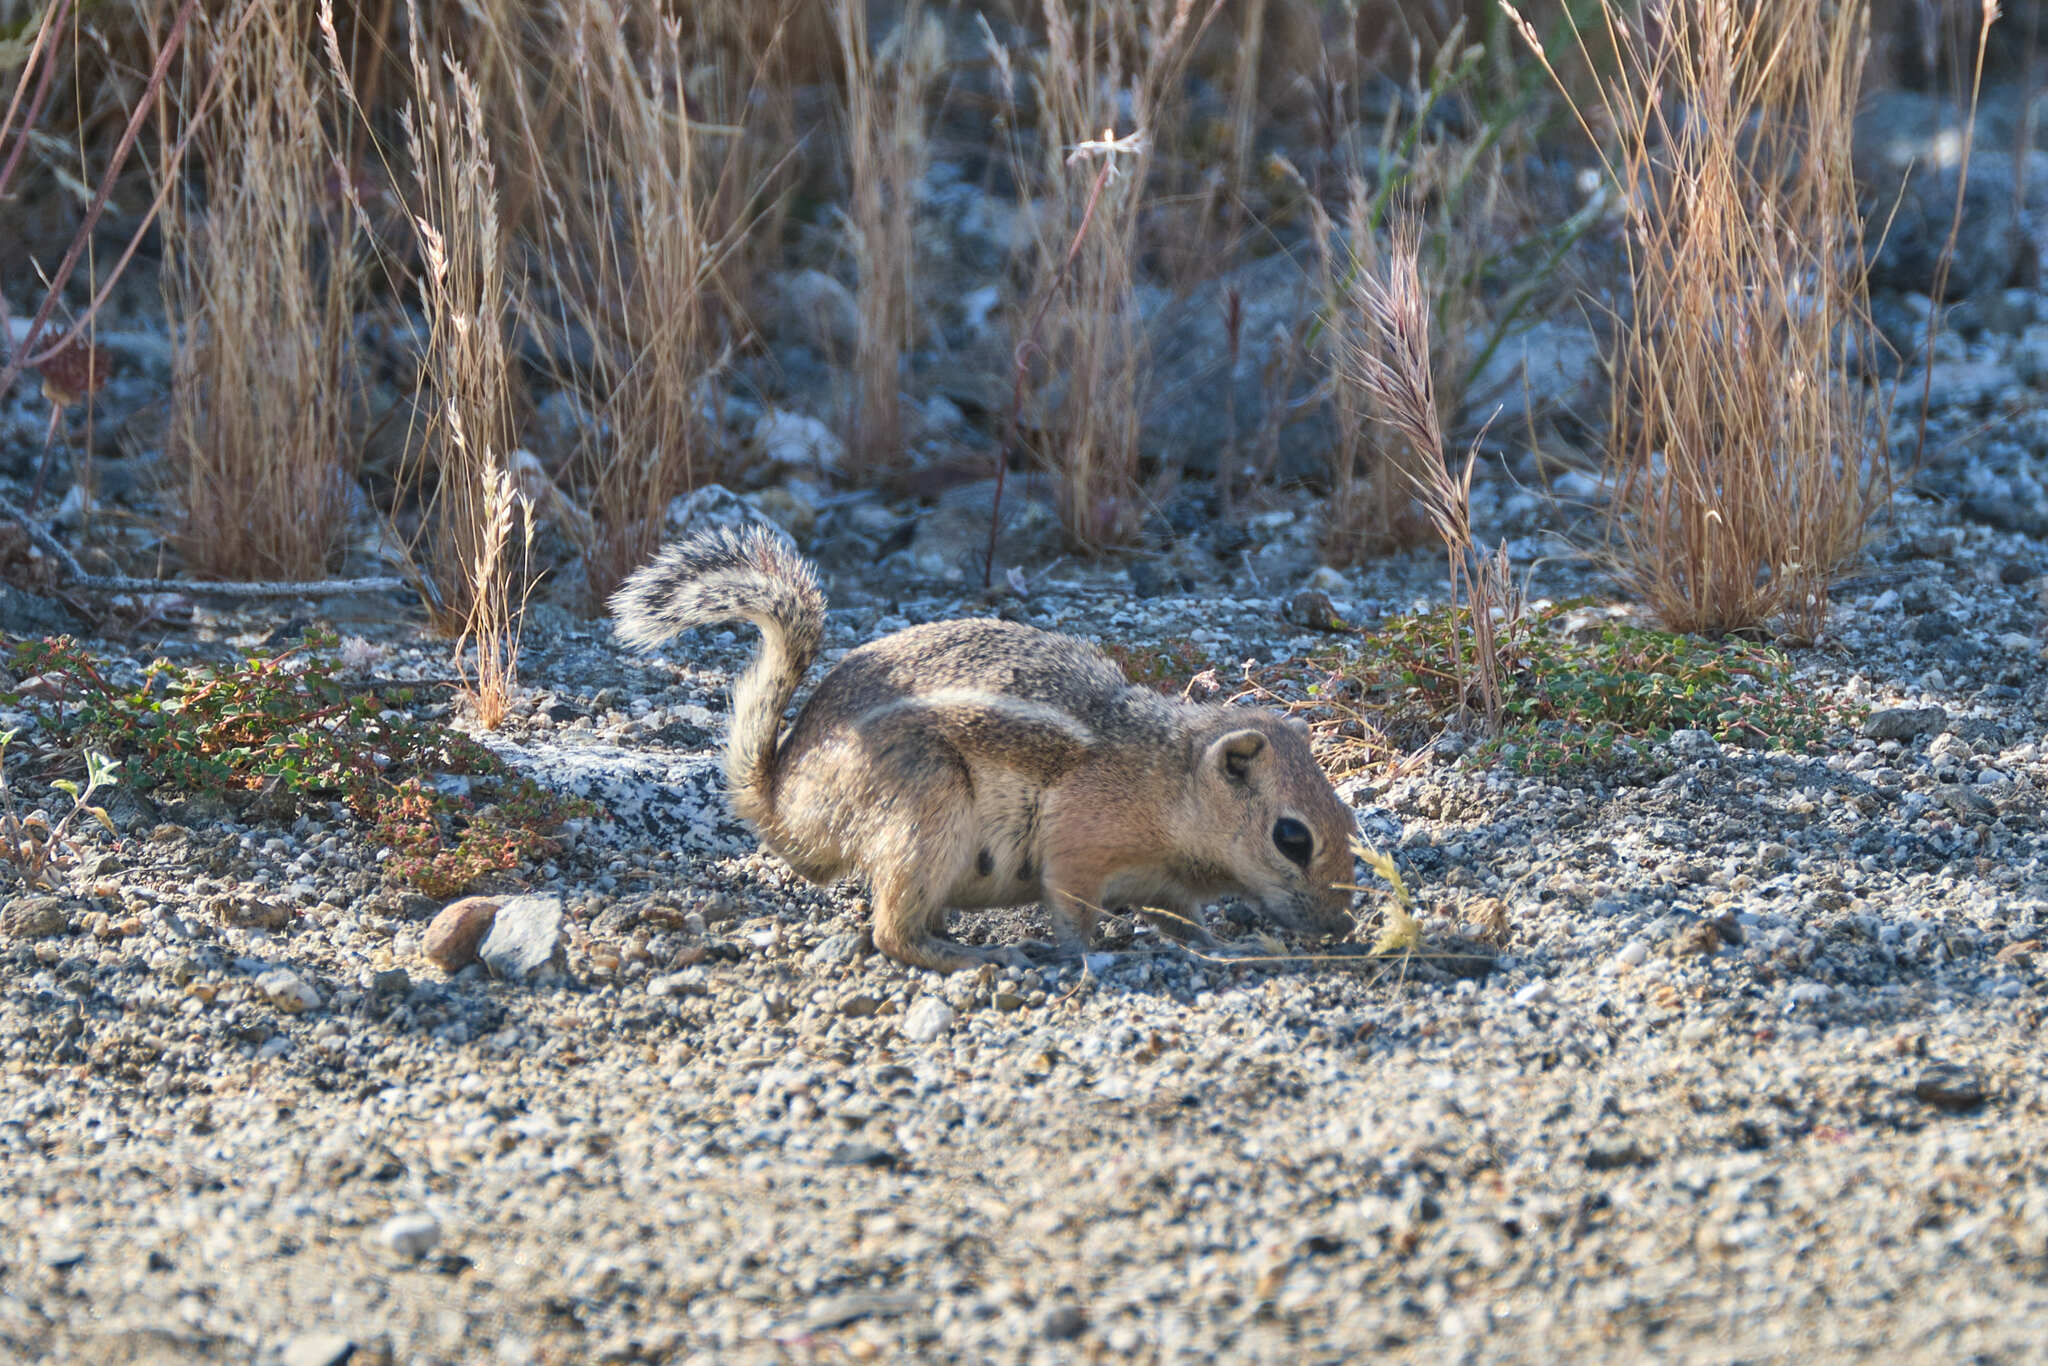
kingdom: Animalia
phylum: Chordata
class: Mammalia
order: Rodentia
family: Sciuridae
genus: Ammospermophilus
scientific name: Ammospermophilus leucurus
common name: White-tailed antelope squirrel
